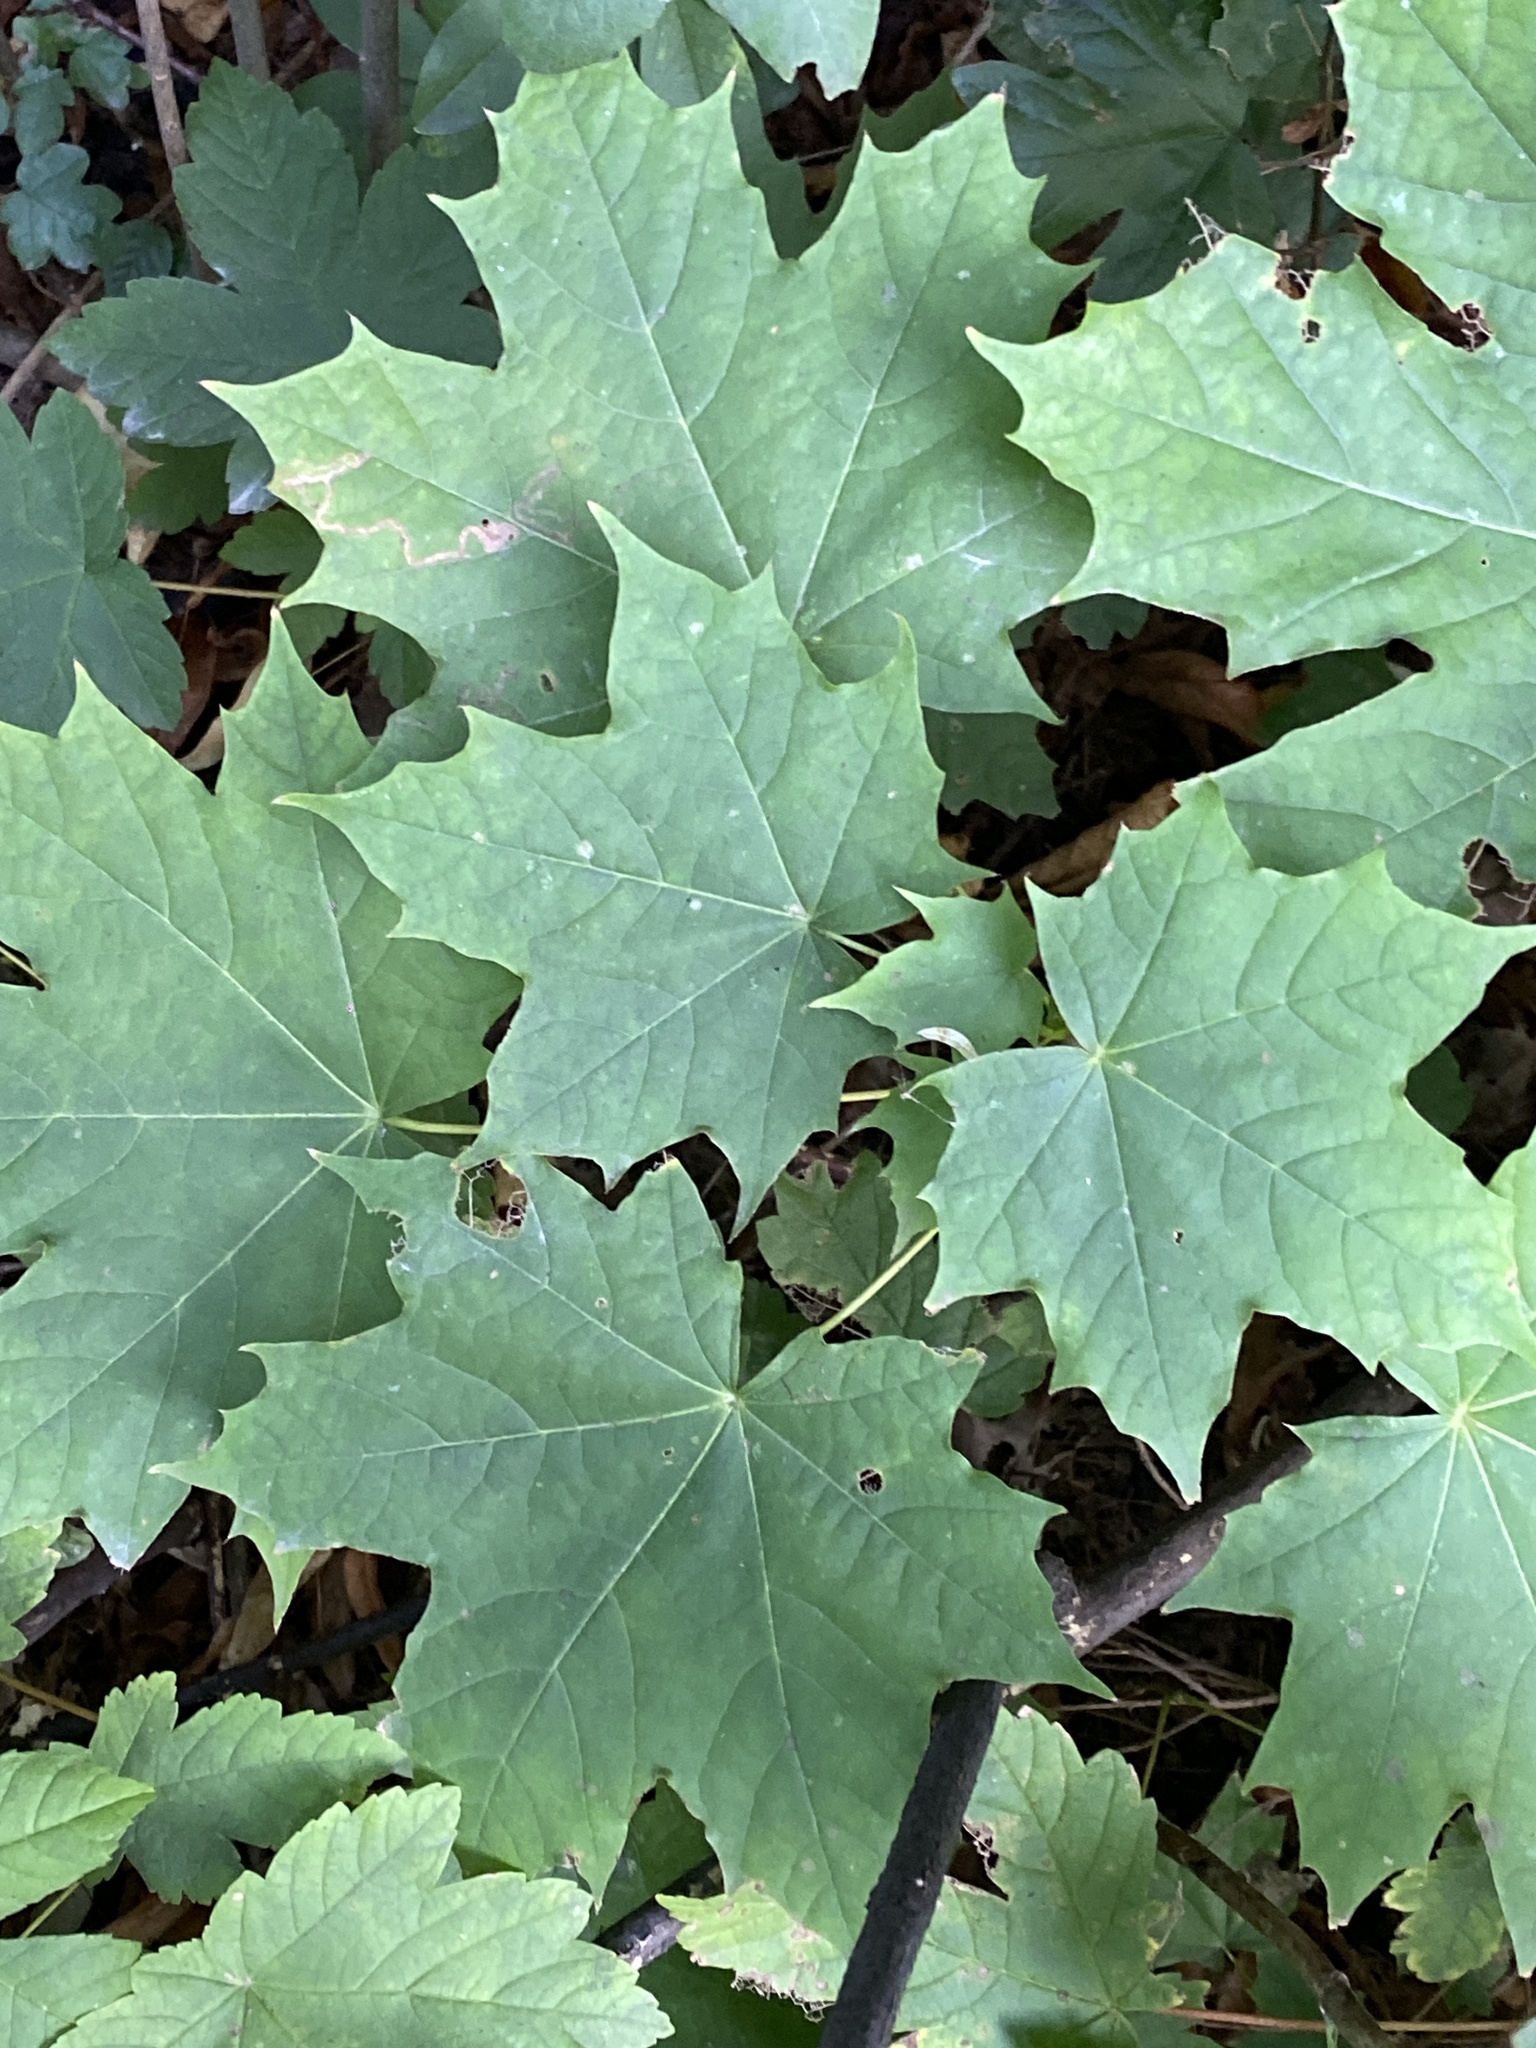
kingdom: Plantae
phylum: Tracheophyta
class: Magnoliopsida
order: Sapindales
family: Sapindaceae
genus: Acer
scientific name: Acer platanoides
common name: Norway maple
